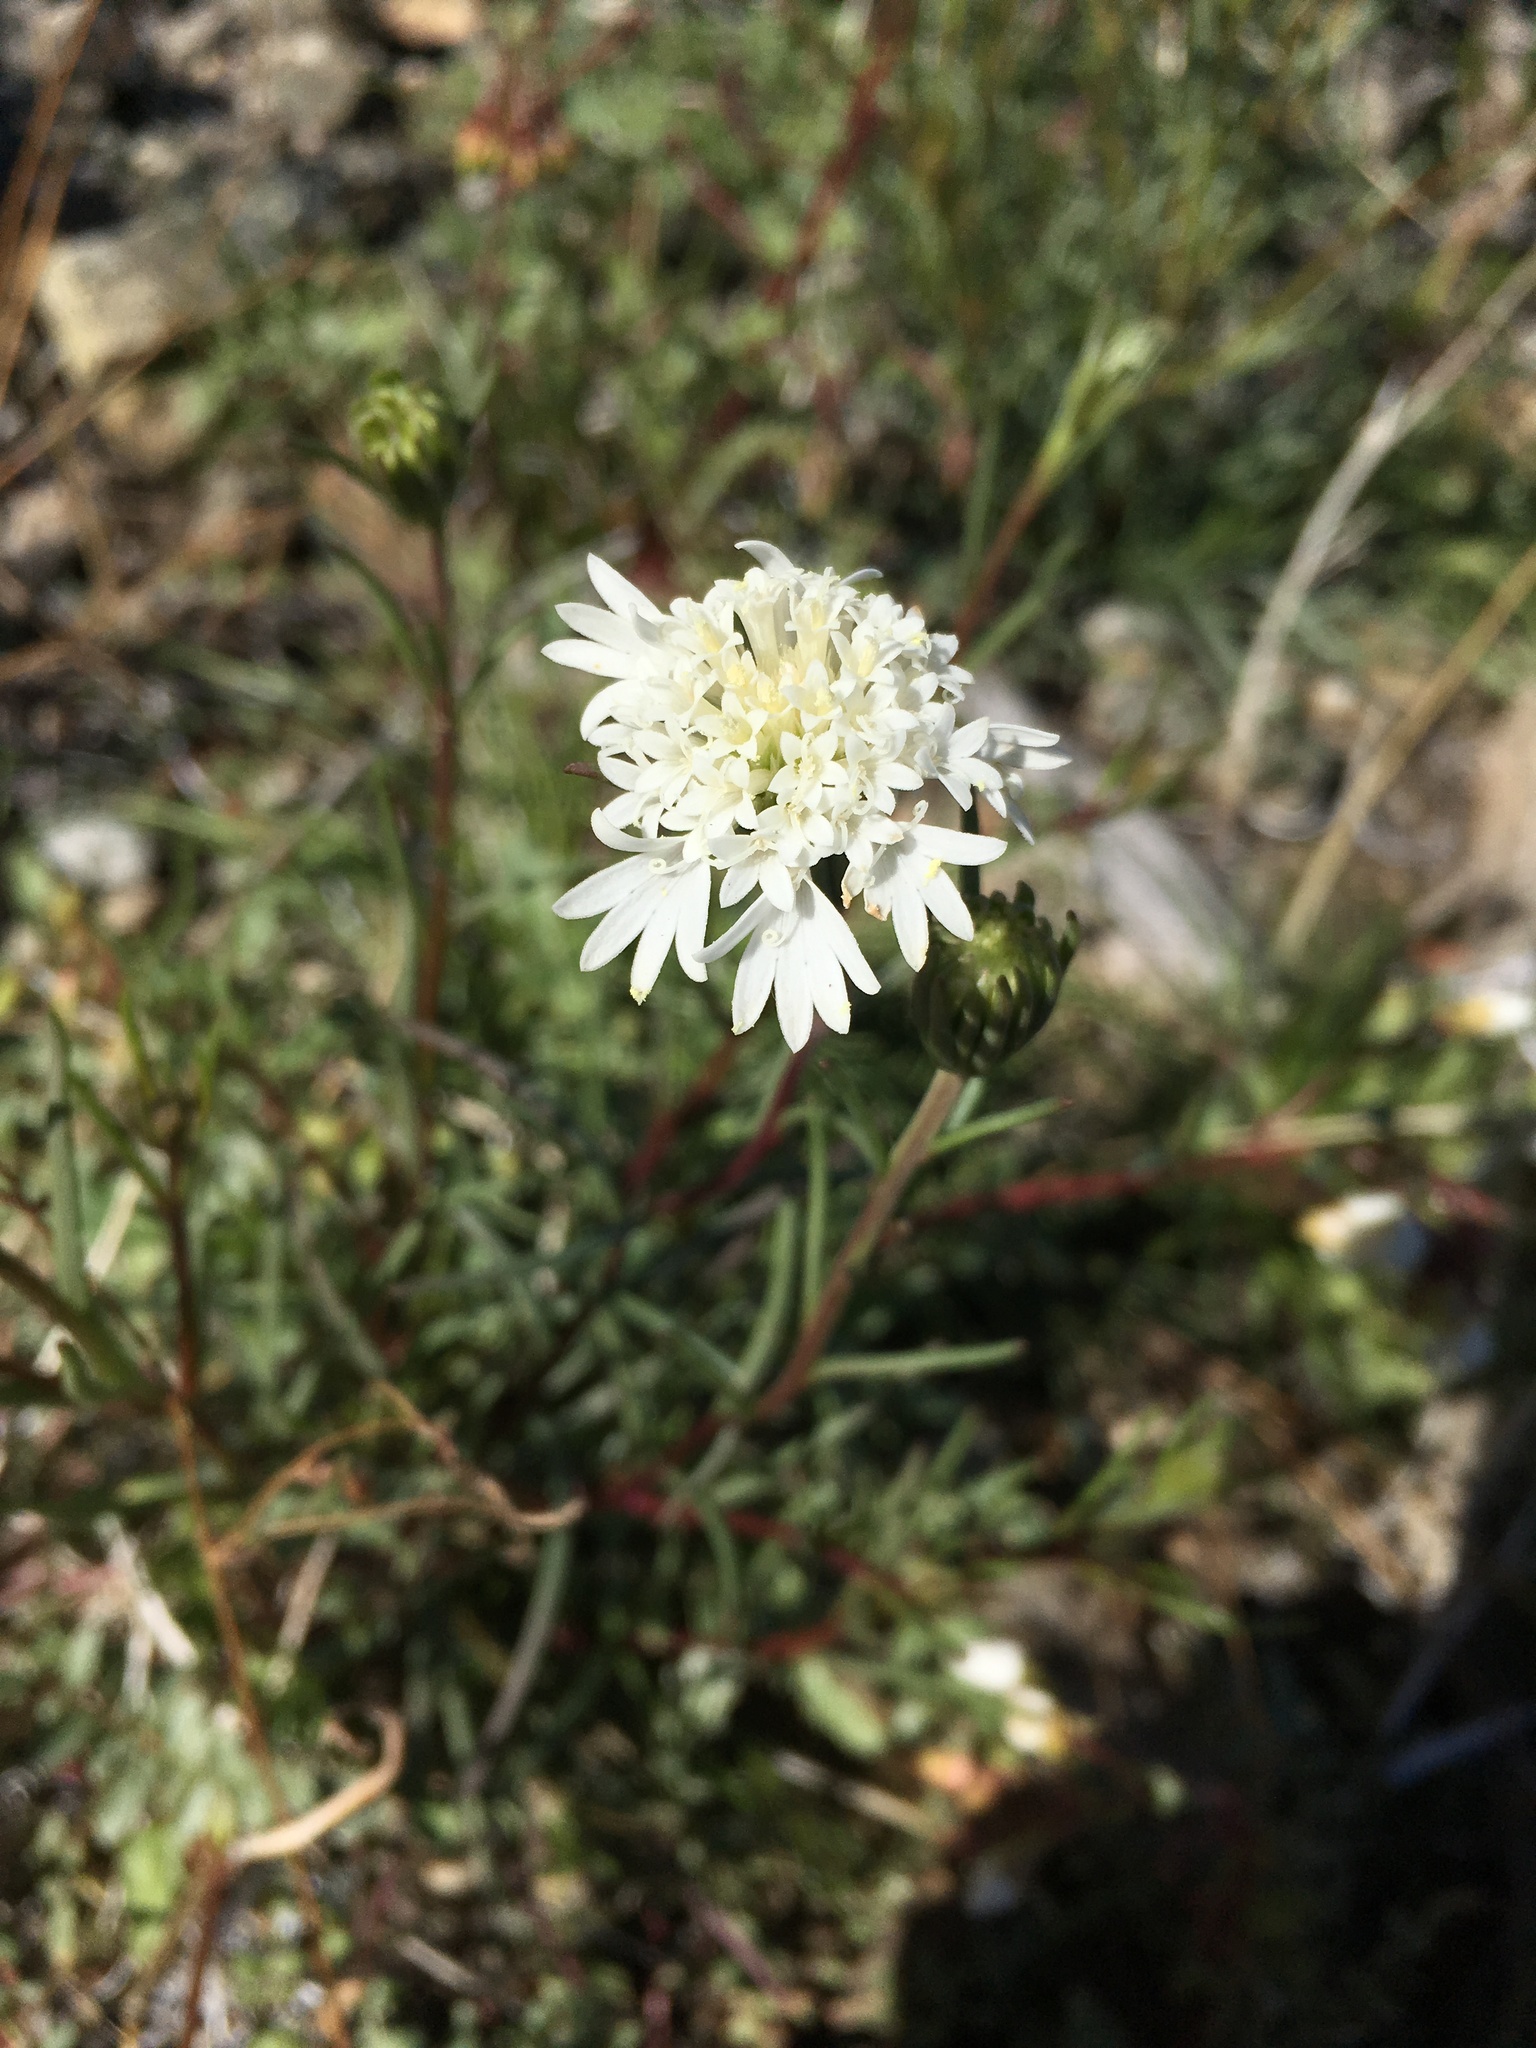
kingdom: Plantae
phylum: Tracheophyta
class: Magnoliopsida
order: Asterales
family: Asteraceae
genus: Chaenactis
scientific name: Chaenactis fremontii
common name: Fremont pincushion
